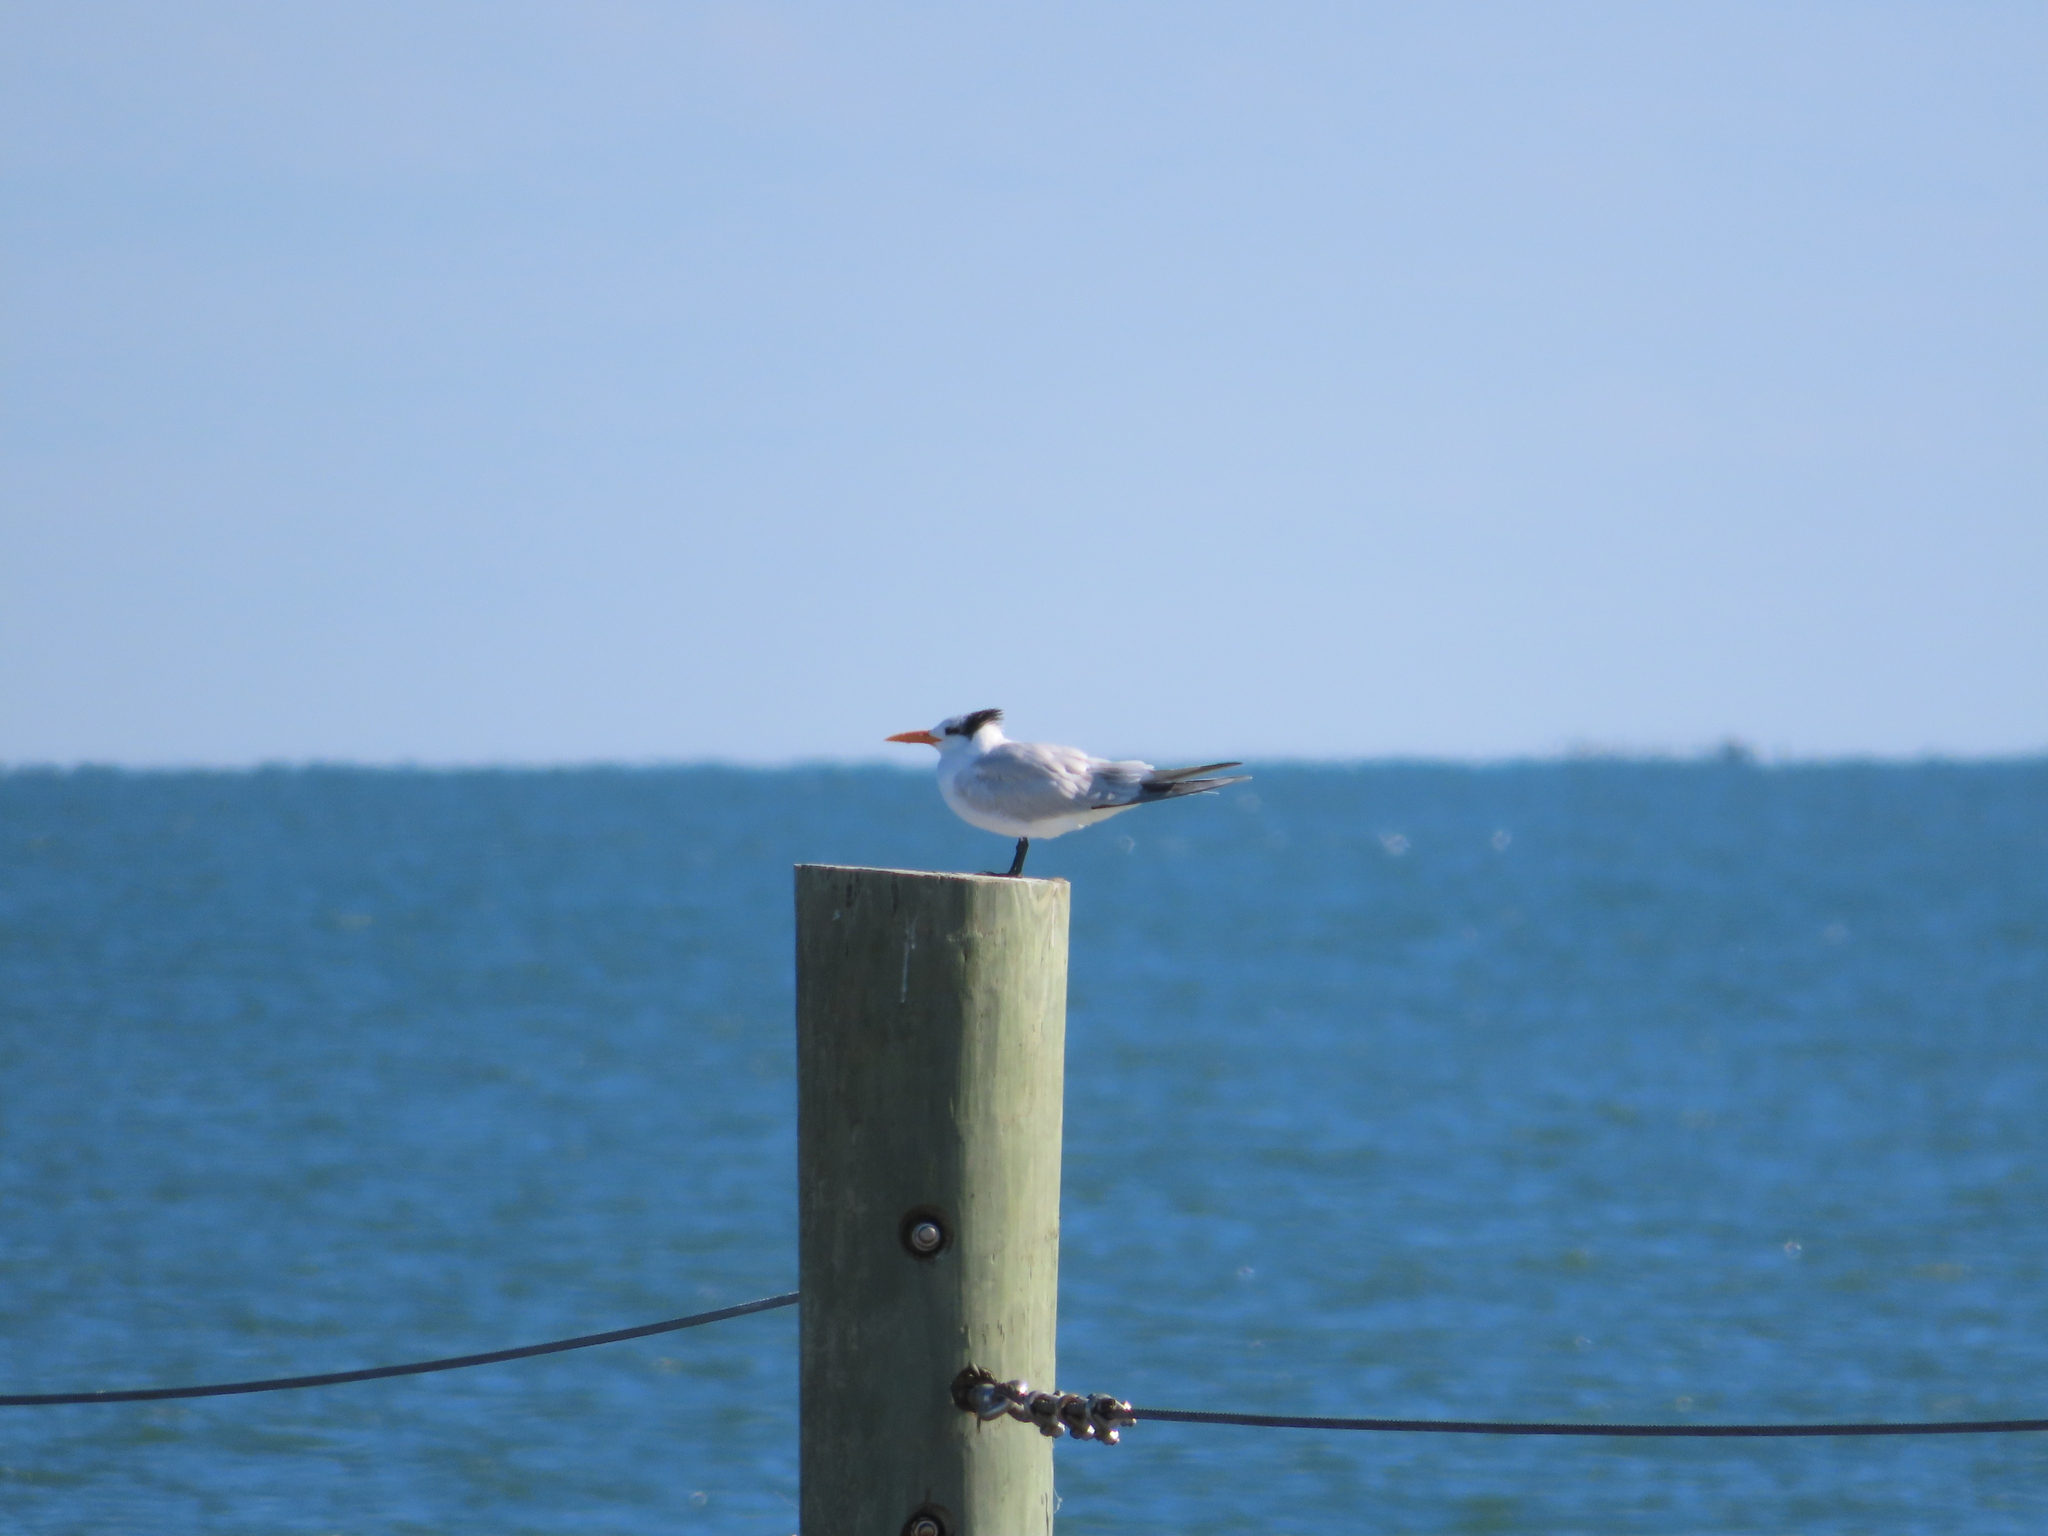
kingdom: Animalia
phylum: Chordata
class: Aves
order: Charadriiformes
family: Laridae
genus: Thalasseus
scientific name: Thalasseus maximus
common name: Royal tern
